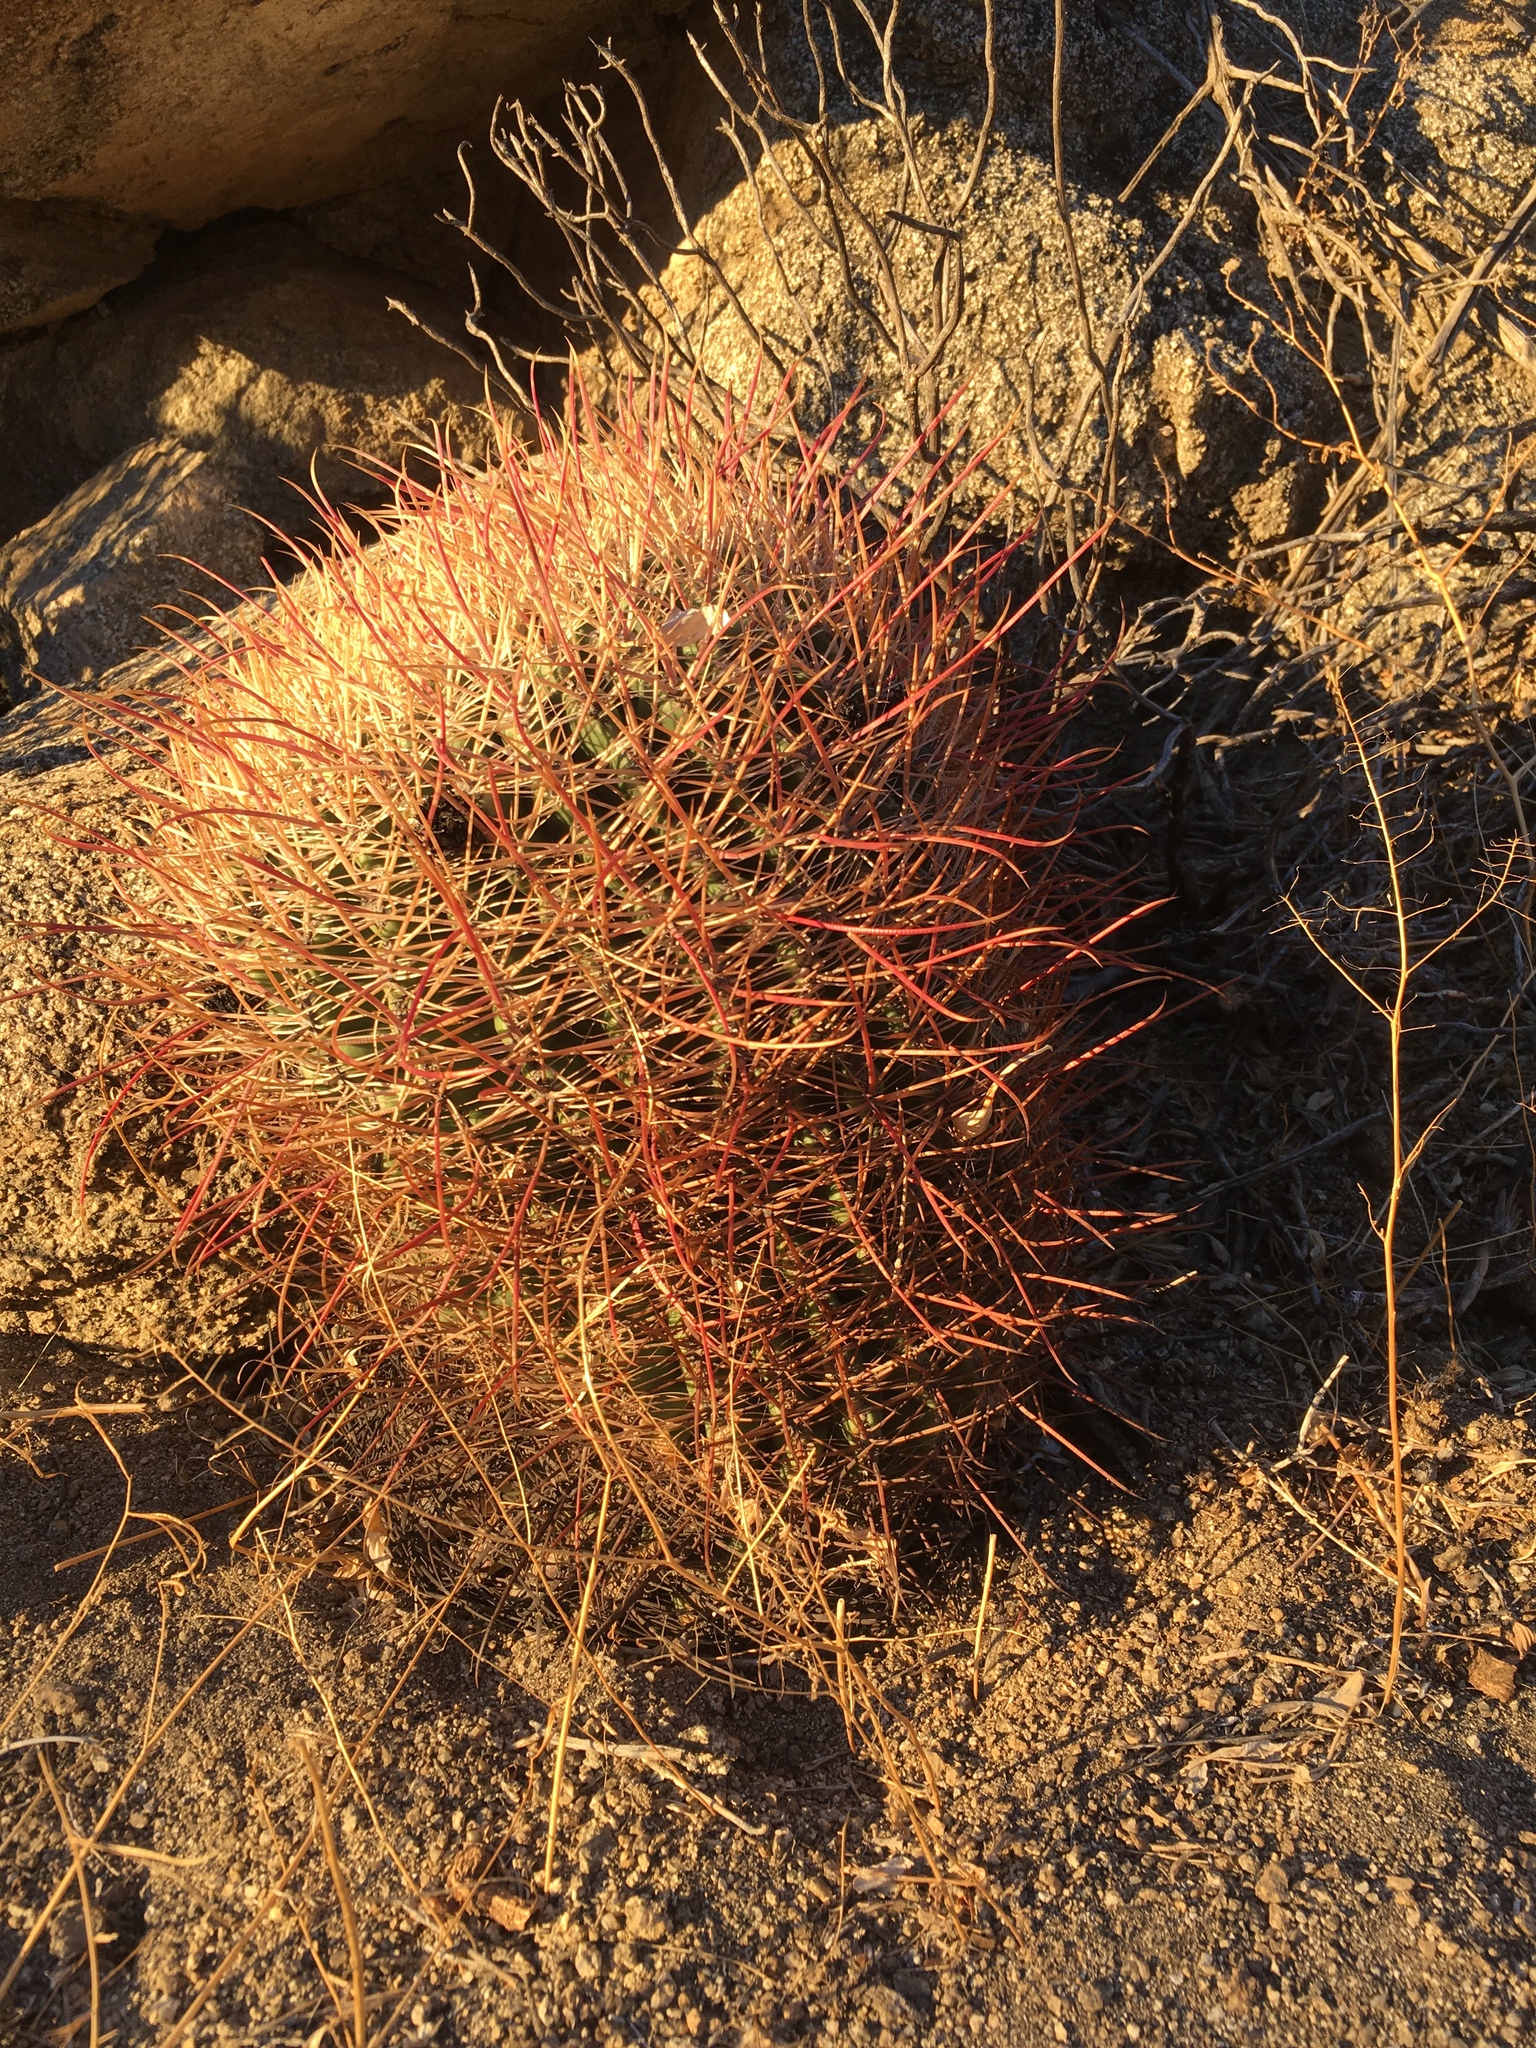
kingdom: Plantae
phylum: Tracheophyta
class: Magnoliopsida
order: Caryophyllales
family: Cactaceae
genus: Ferocactus
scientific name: Ferocactus cylindraceus
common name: California barrel cactus
